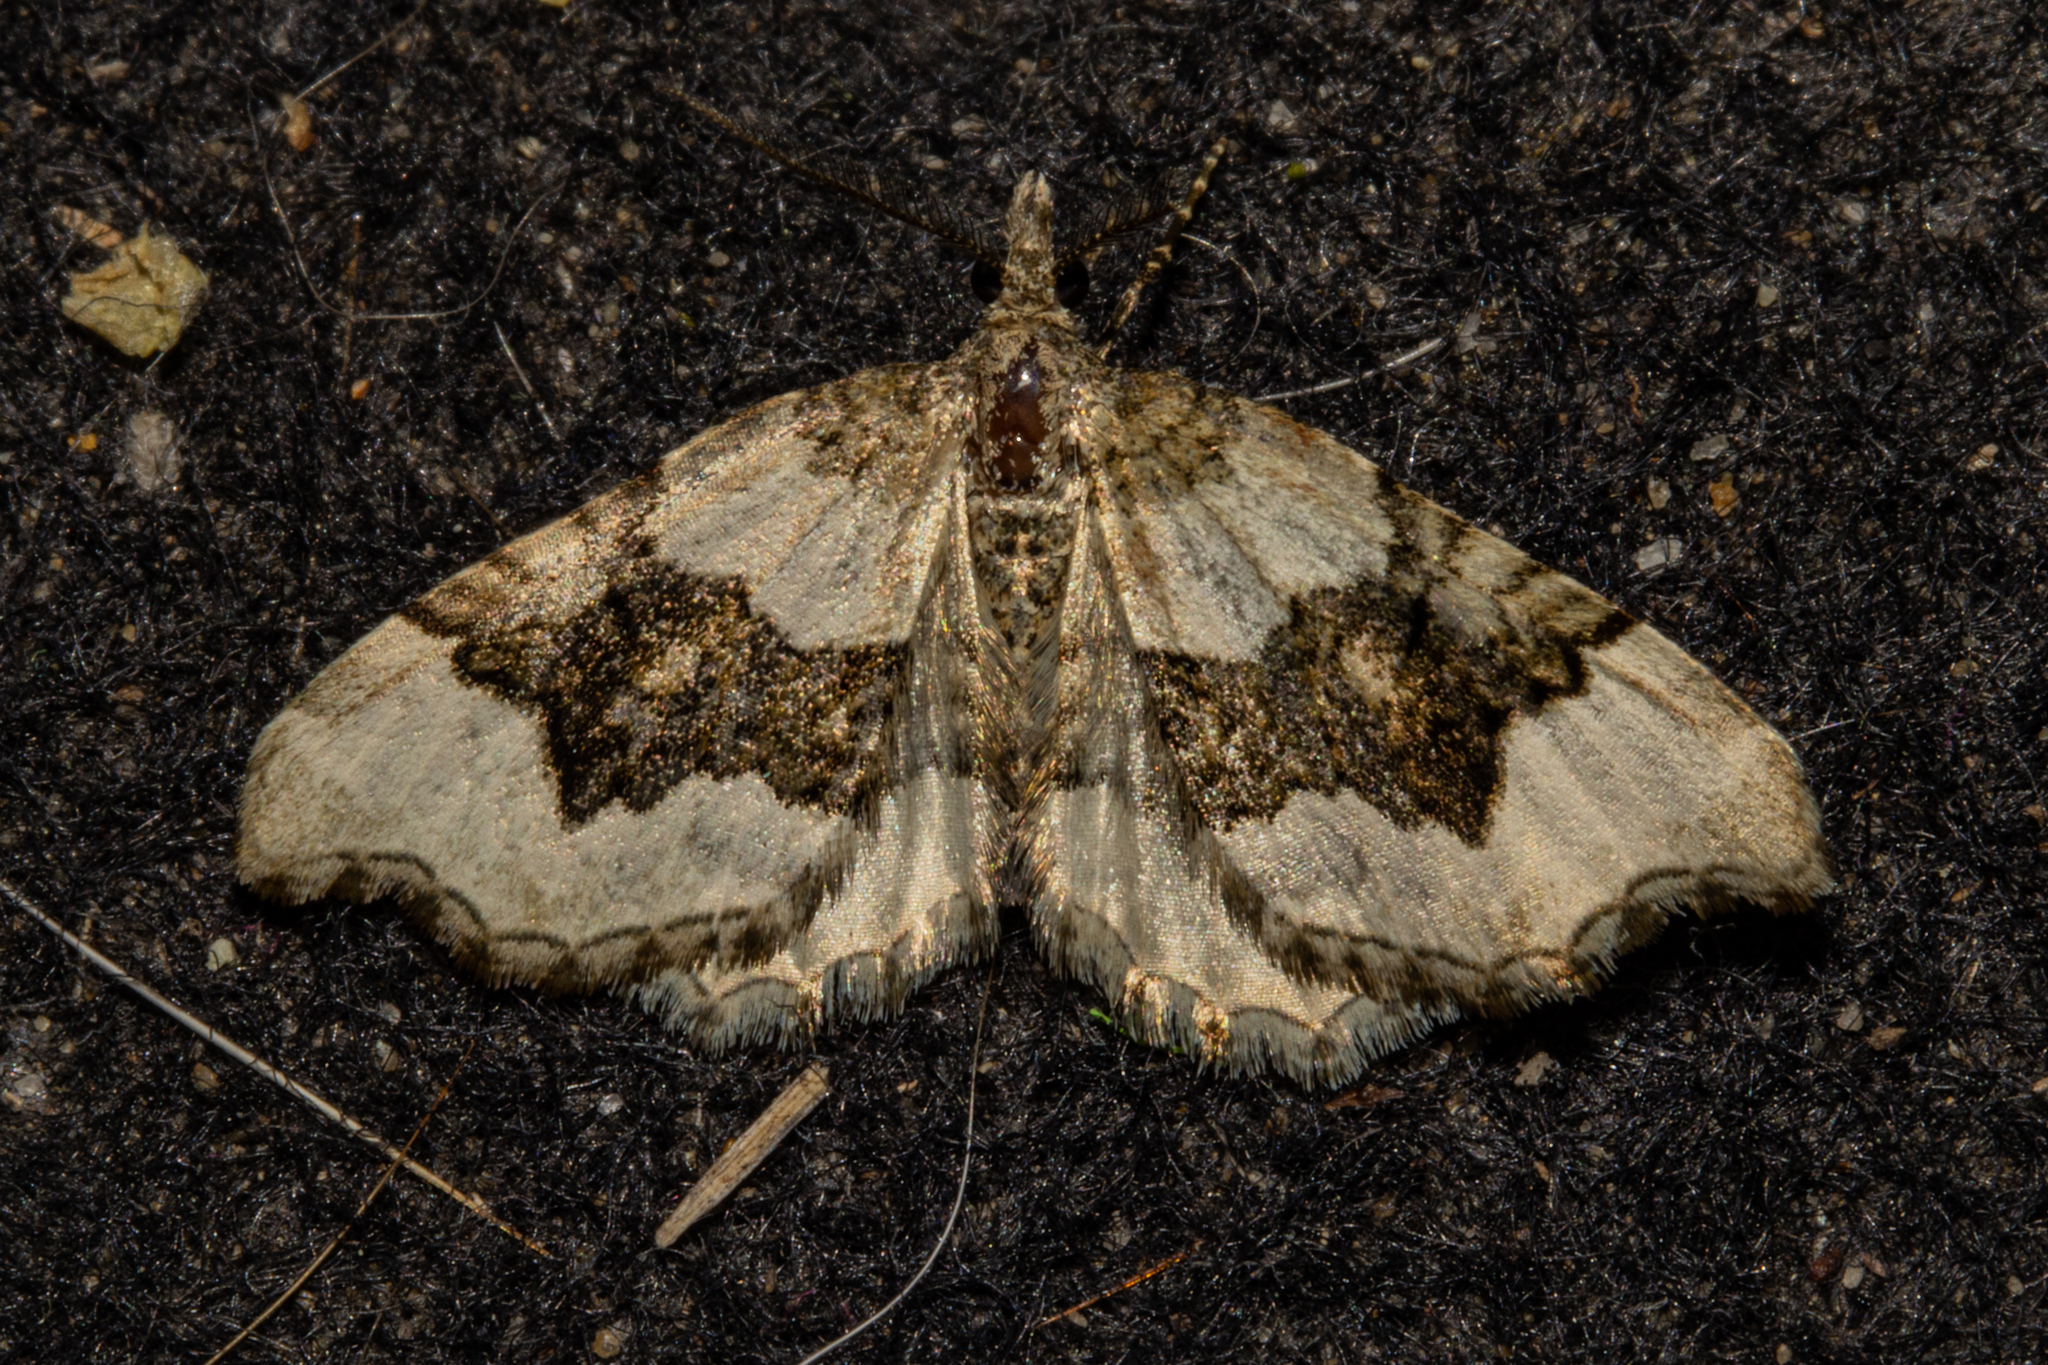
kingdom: Animalia
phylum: Arthropoda
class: Insecta
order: Lepidoptera
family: Geometridae
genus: Helastia
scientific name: Helastia cryptica
